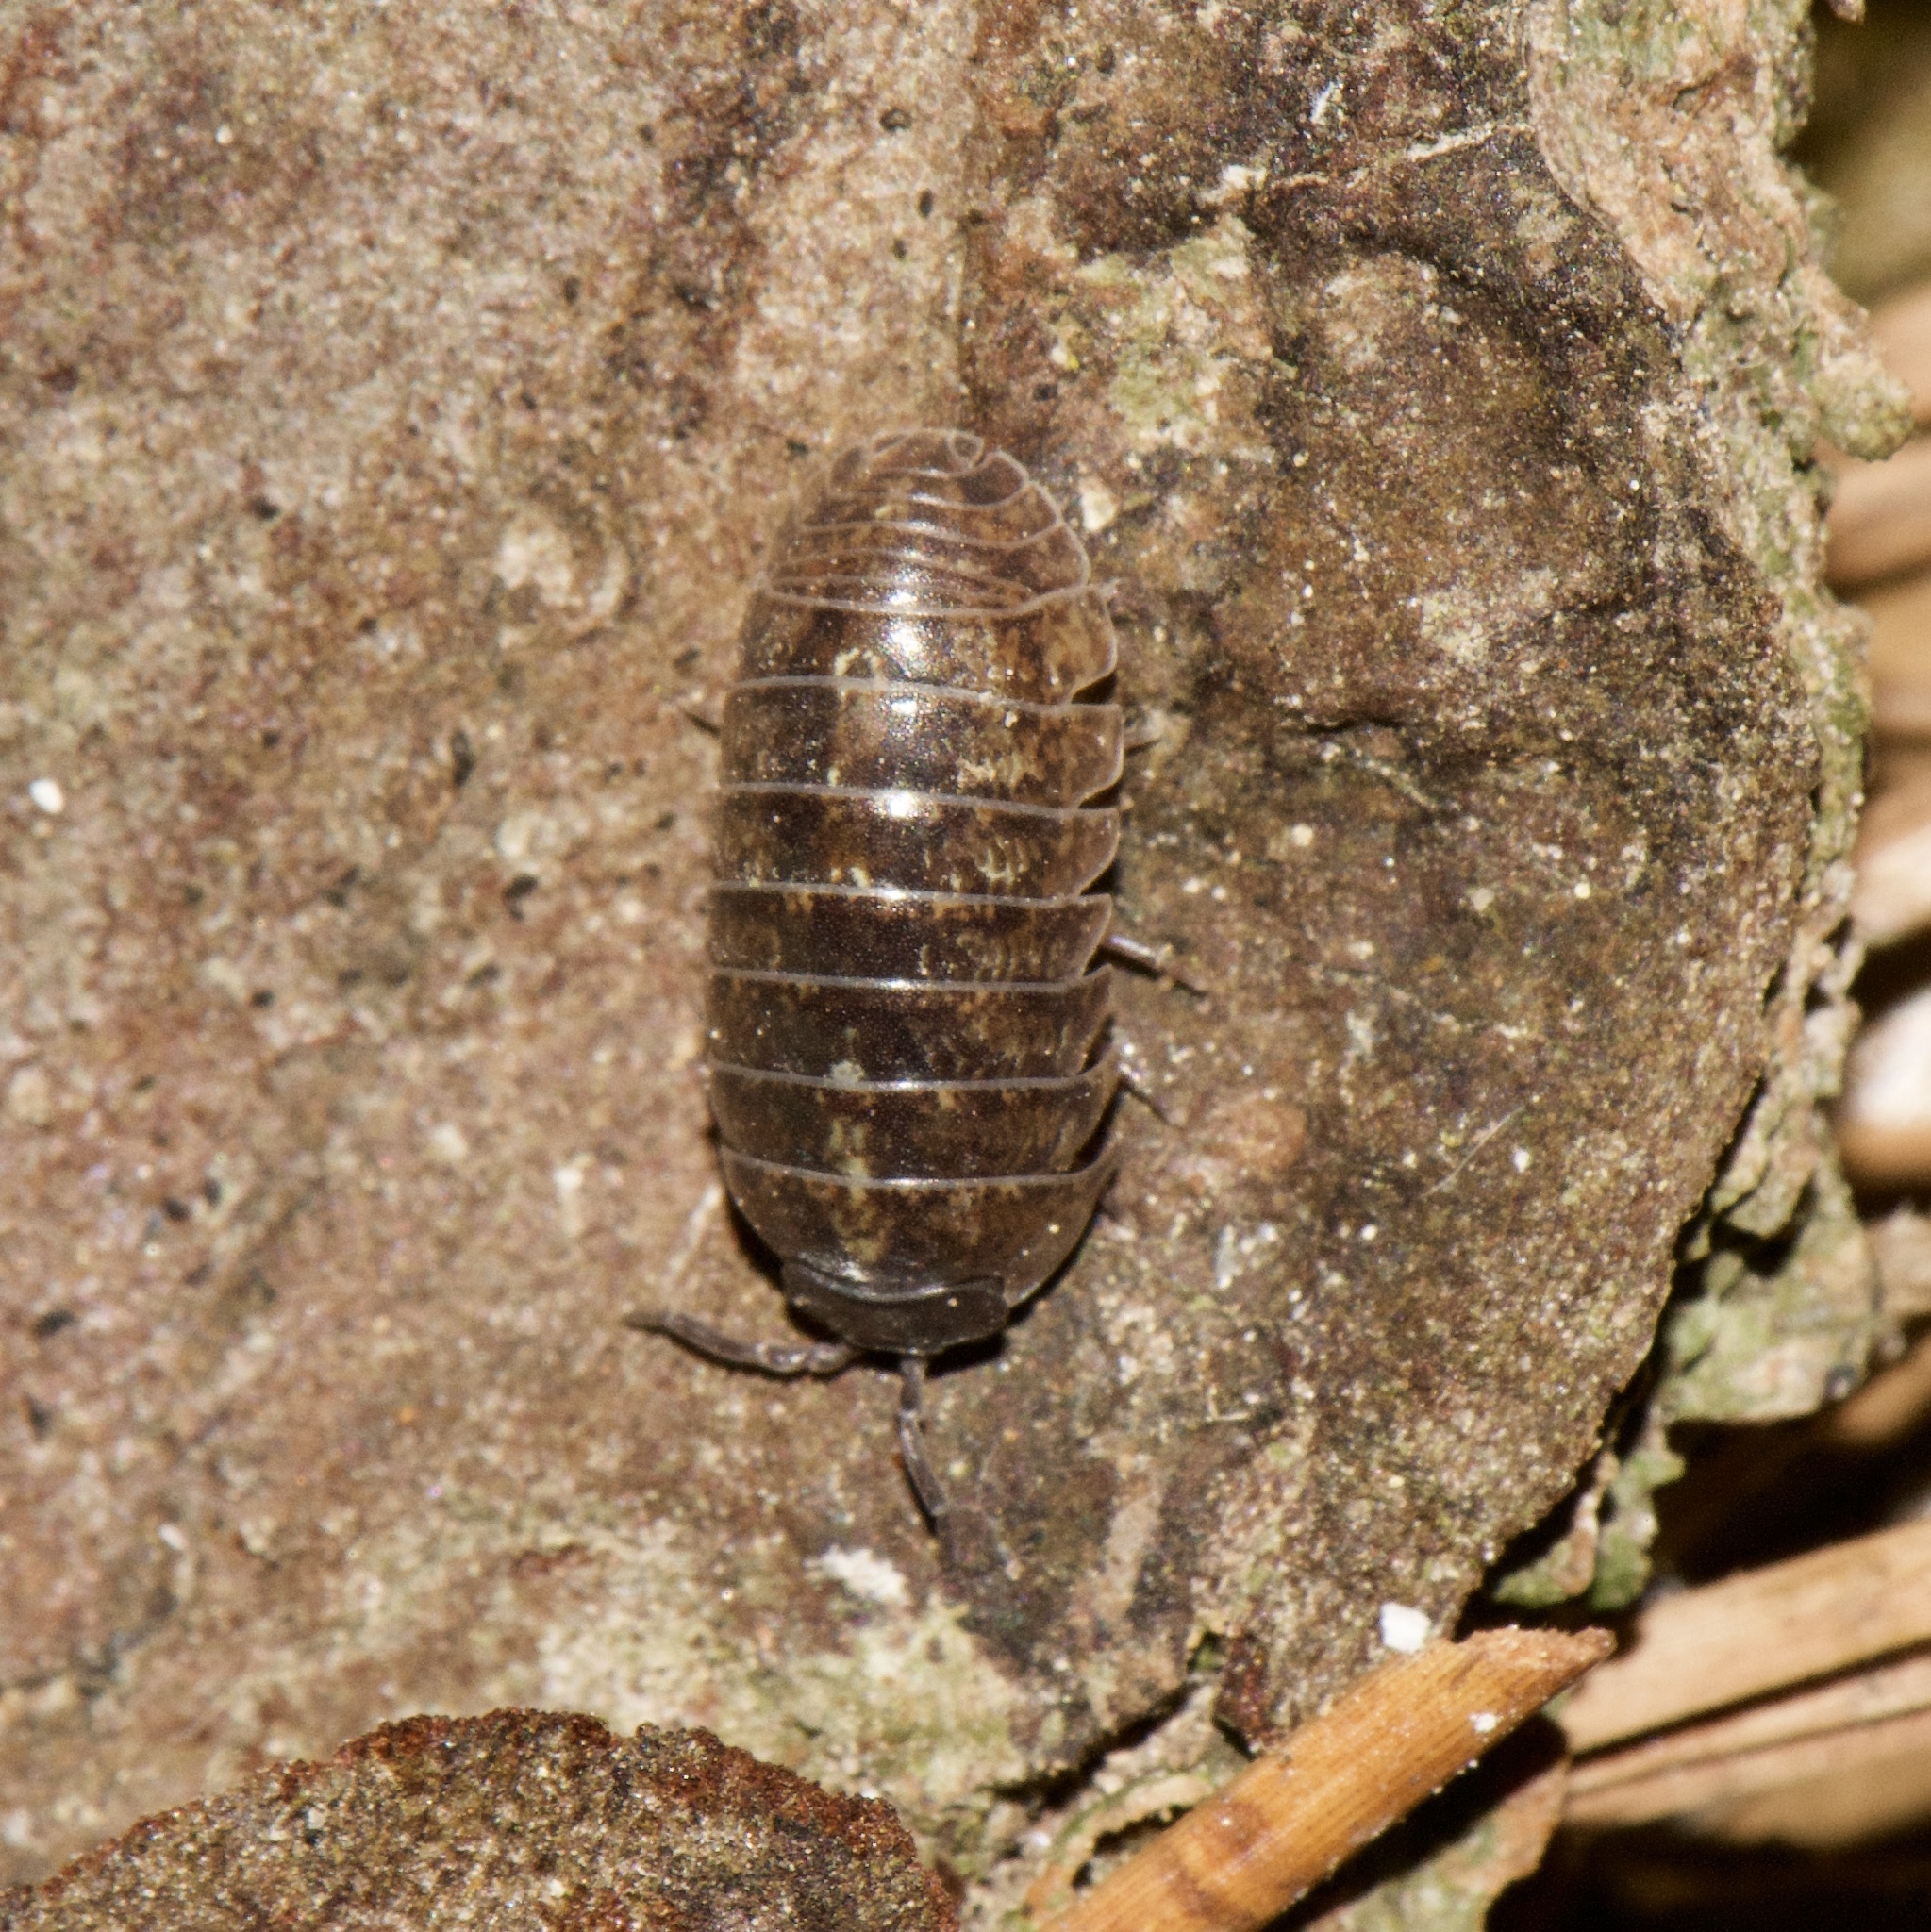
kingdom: Animalia
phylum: Arthropoda
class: Malacostraca
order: Isopoda
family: Armadillidiidae
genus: Armadillidium
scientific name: Armadillidium vulgare
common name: Common pill woodlouse
